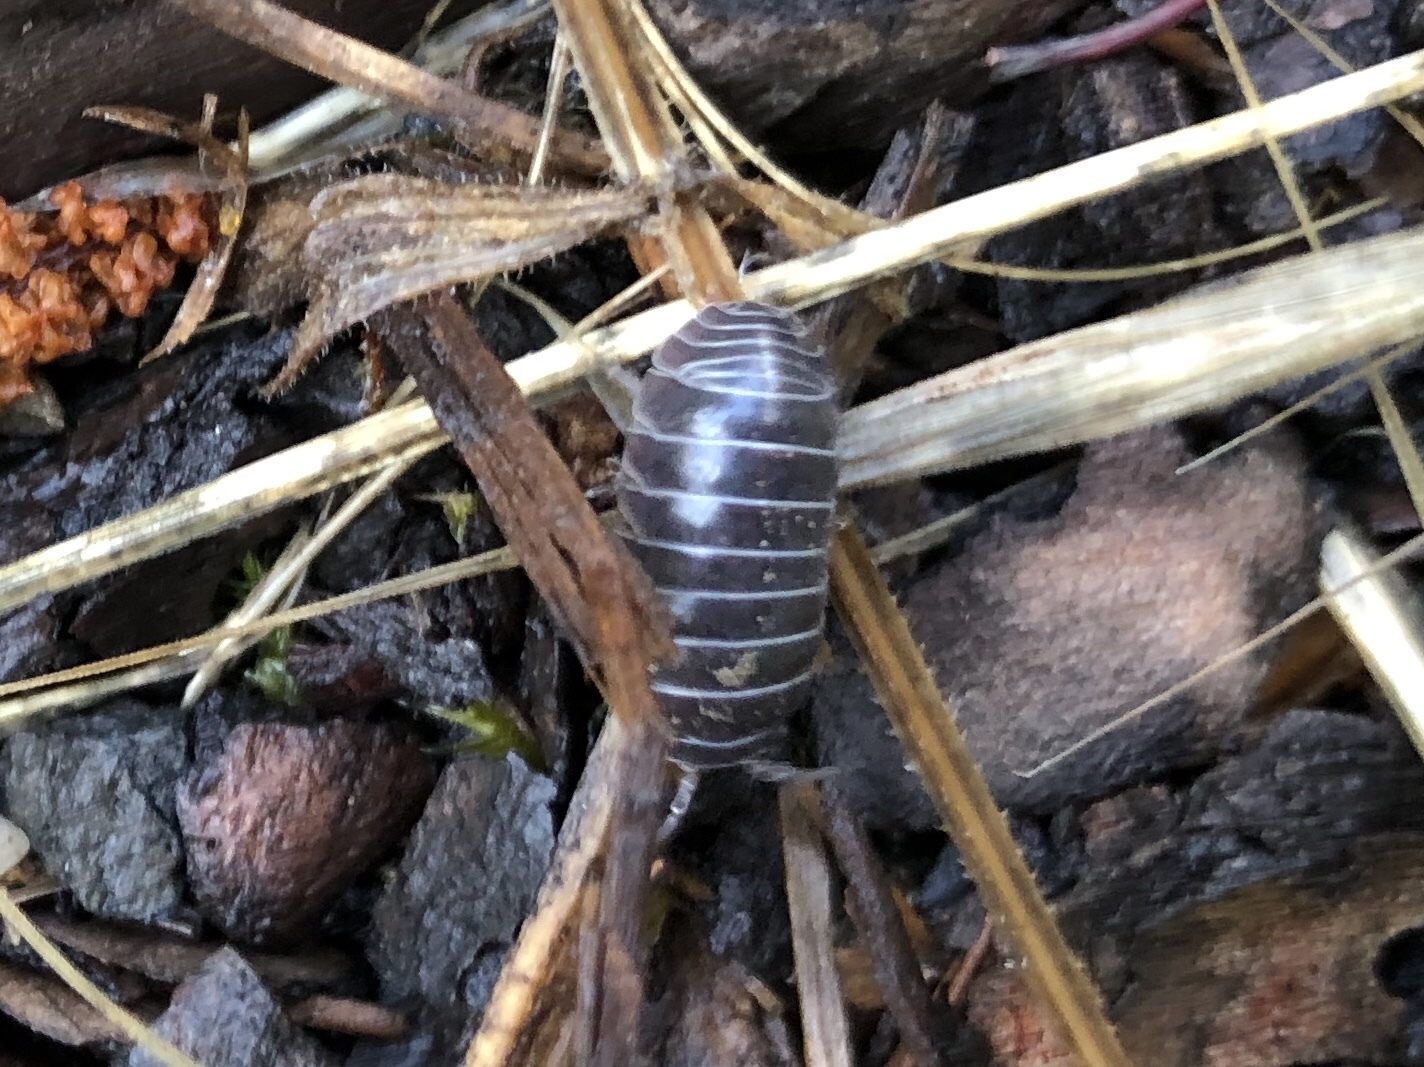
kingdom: Animalia
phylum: Arthropoda
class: Malacostraca
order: Isopoda
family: Armadillidiidae
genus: Armadillidium
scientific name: Armadillidium vulgare
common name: Common pill woodlouse
